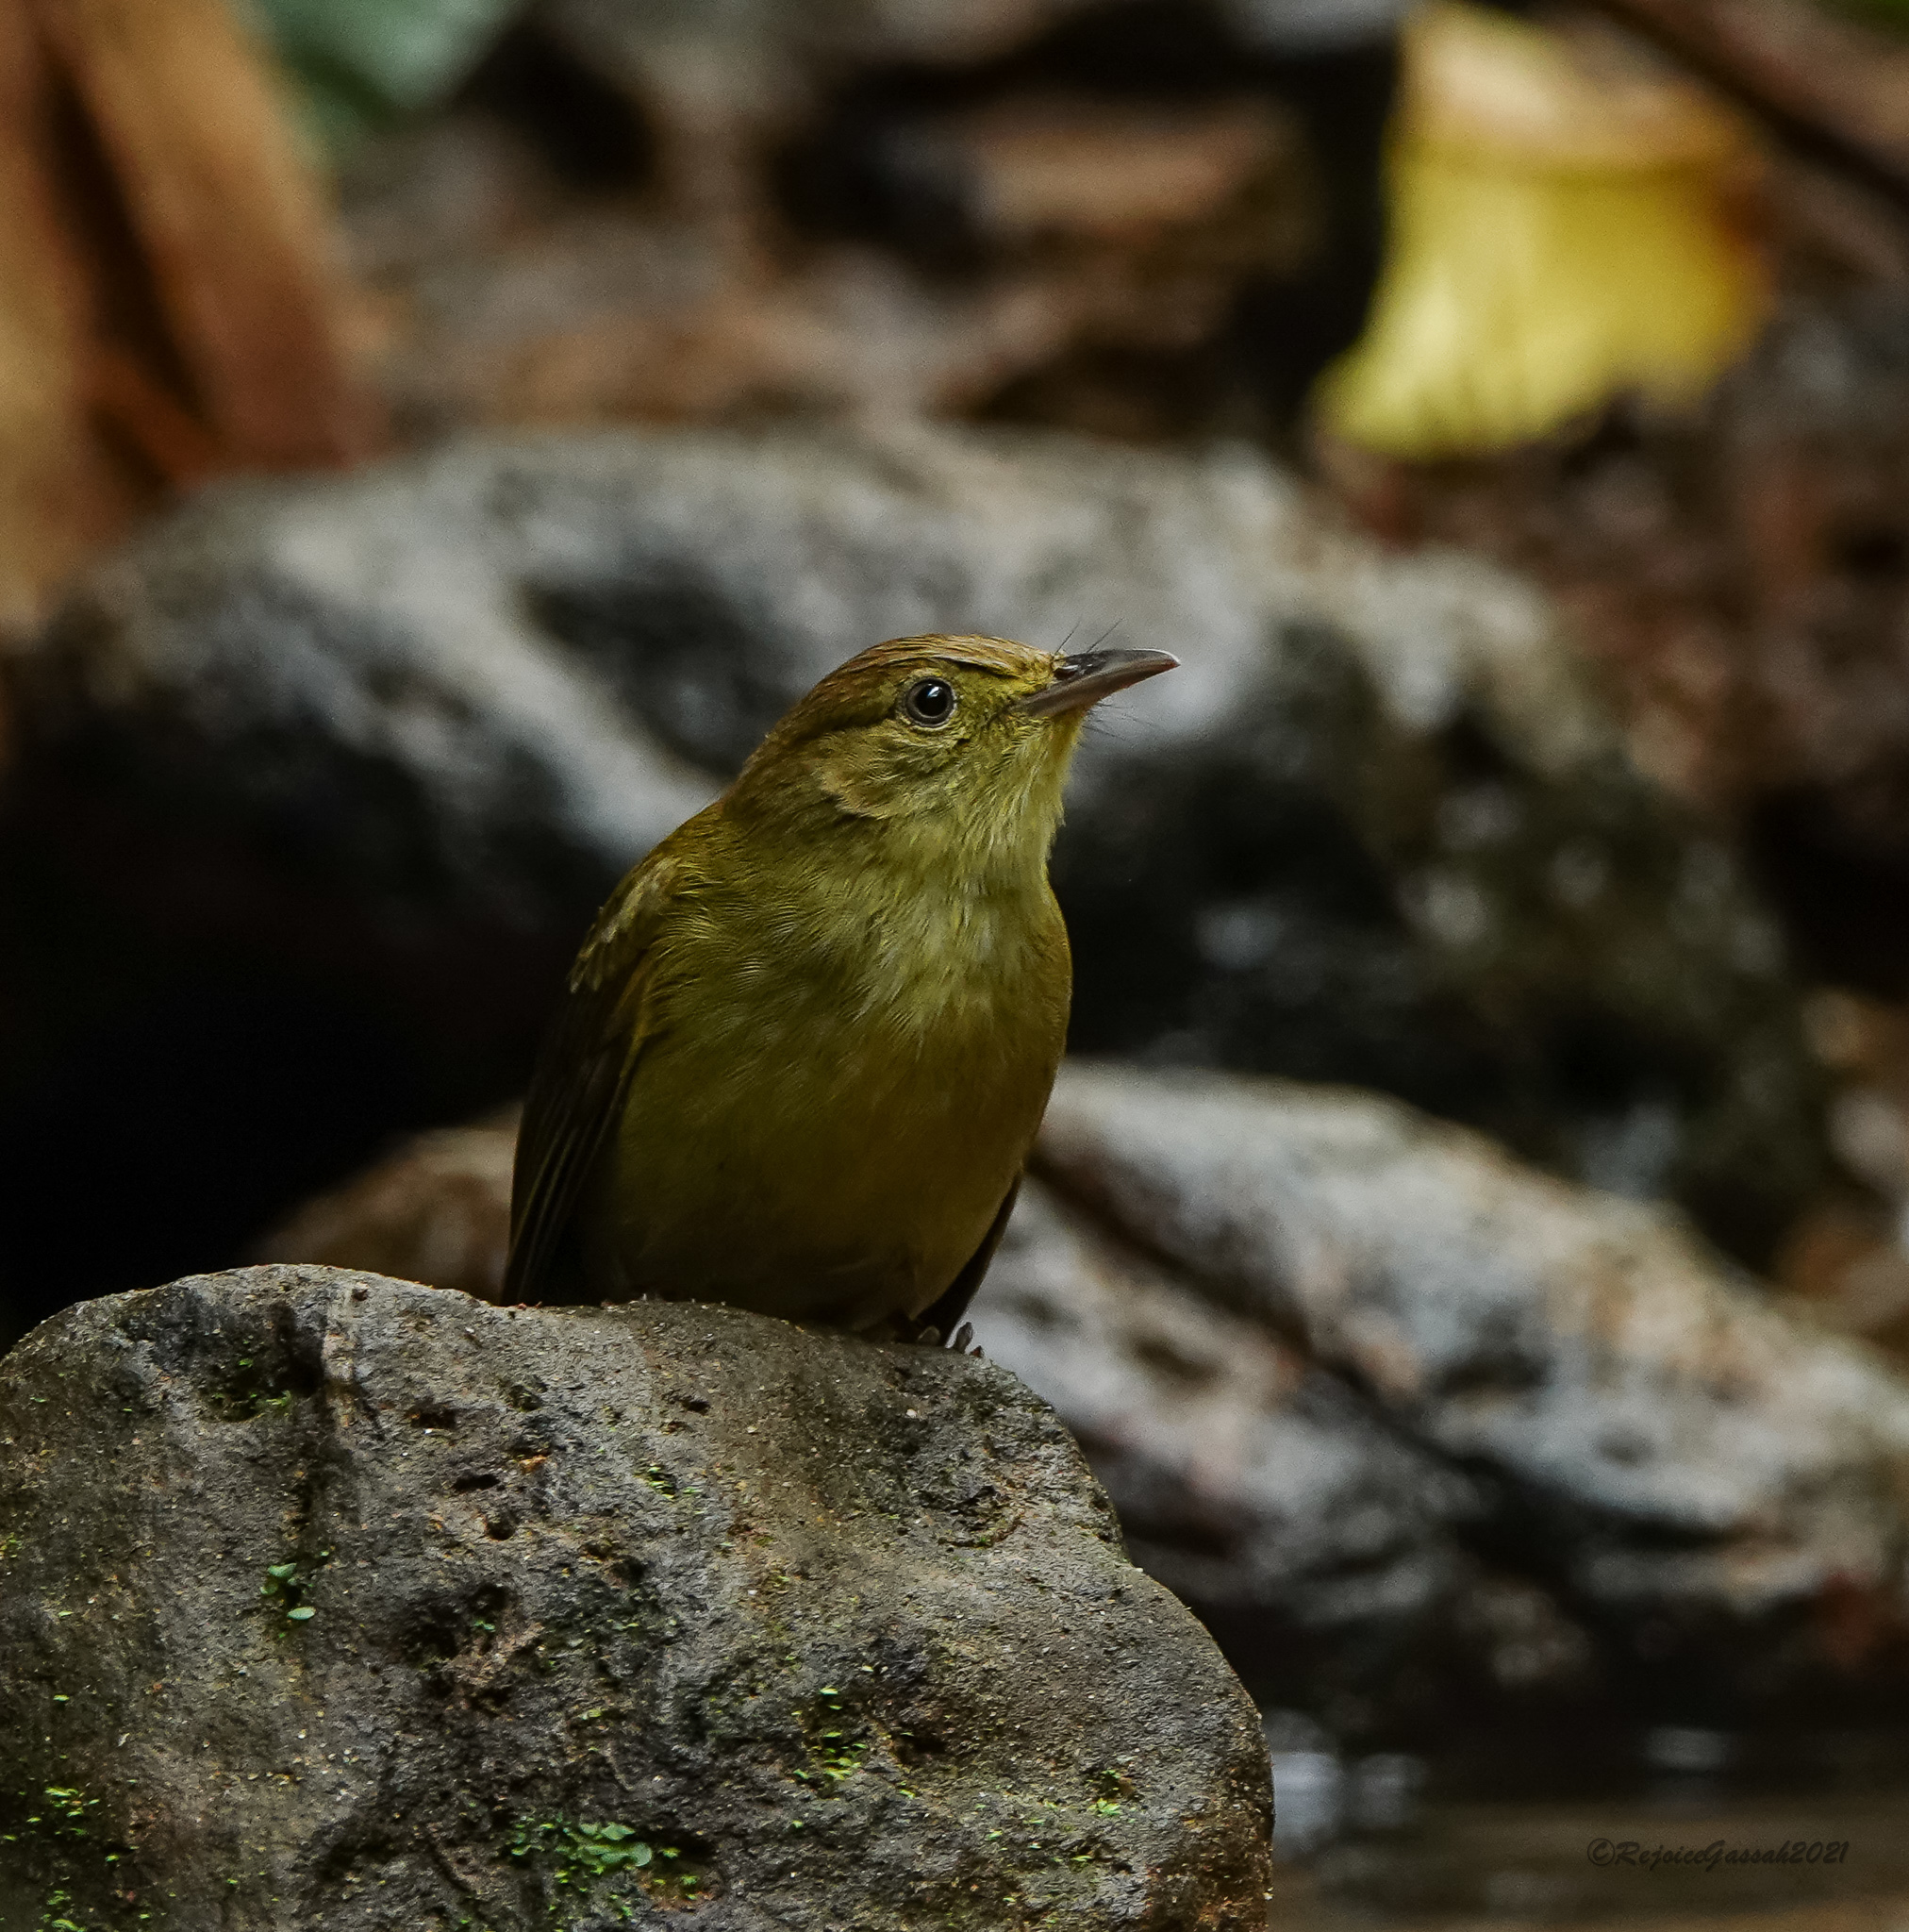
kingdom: Animalia
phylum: Chordata
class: Aves
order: Passeriformes
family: Pycnonotidae
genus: Iole
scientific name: Iole virescens
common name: Olive bulbul
